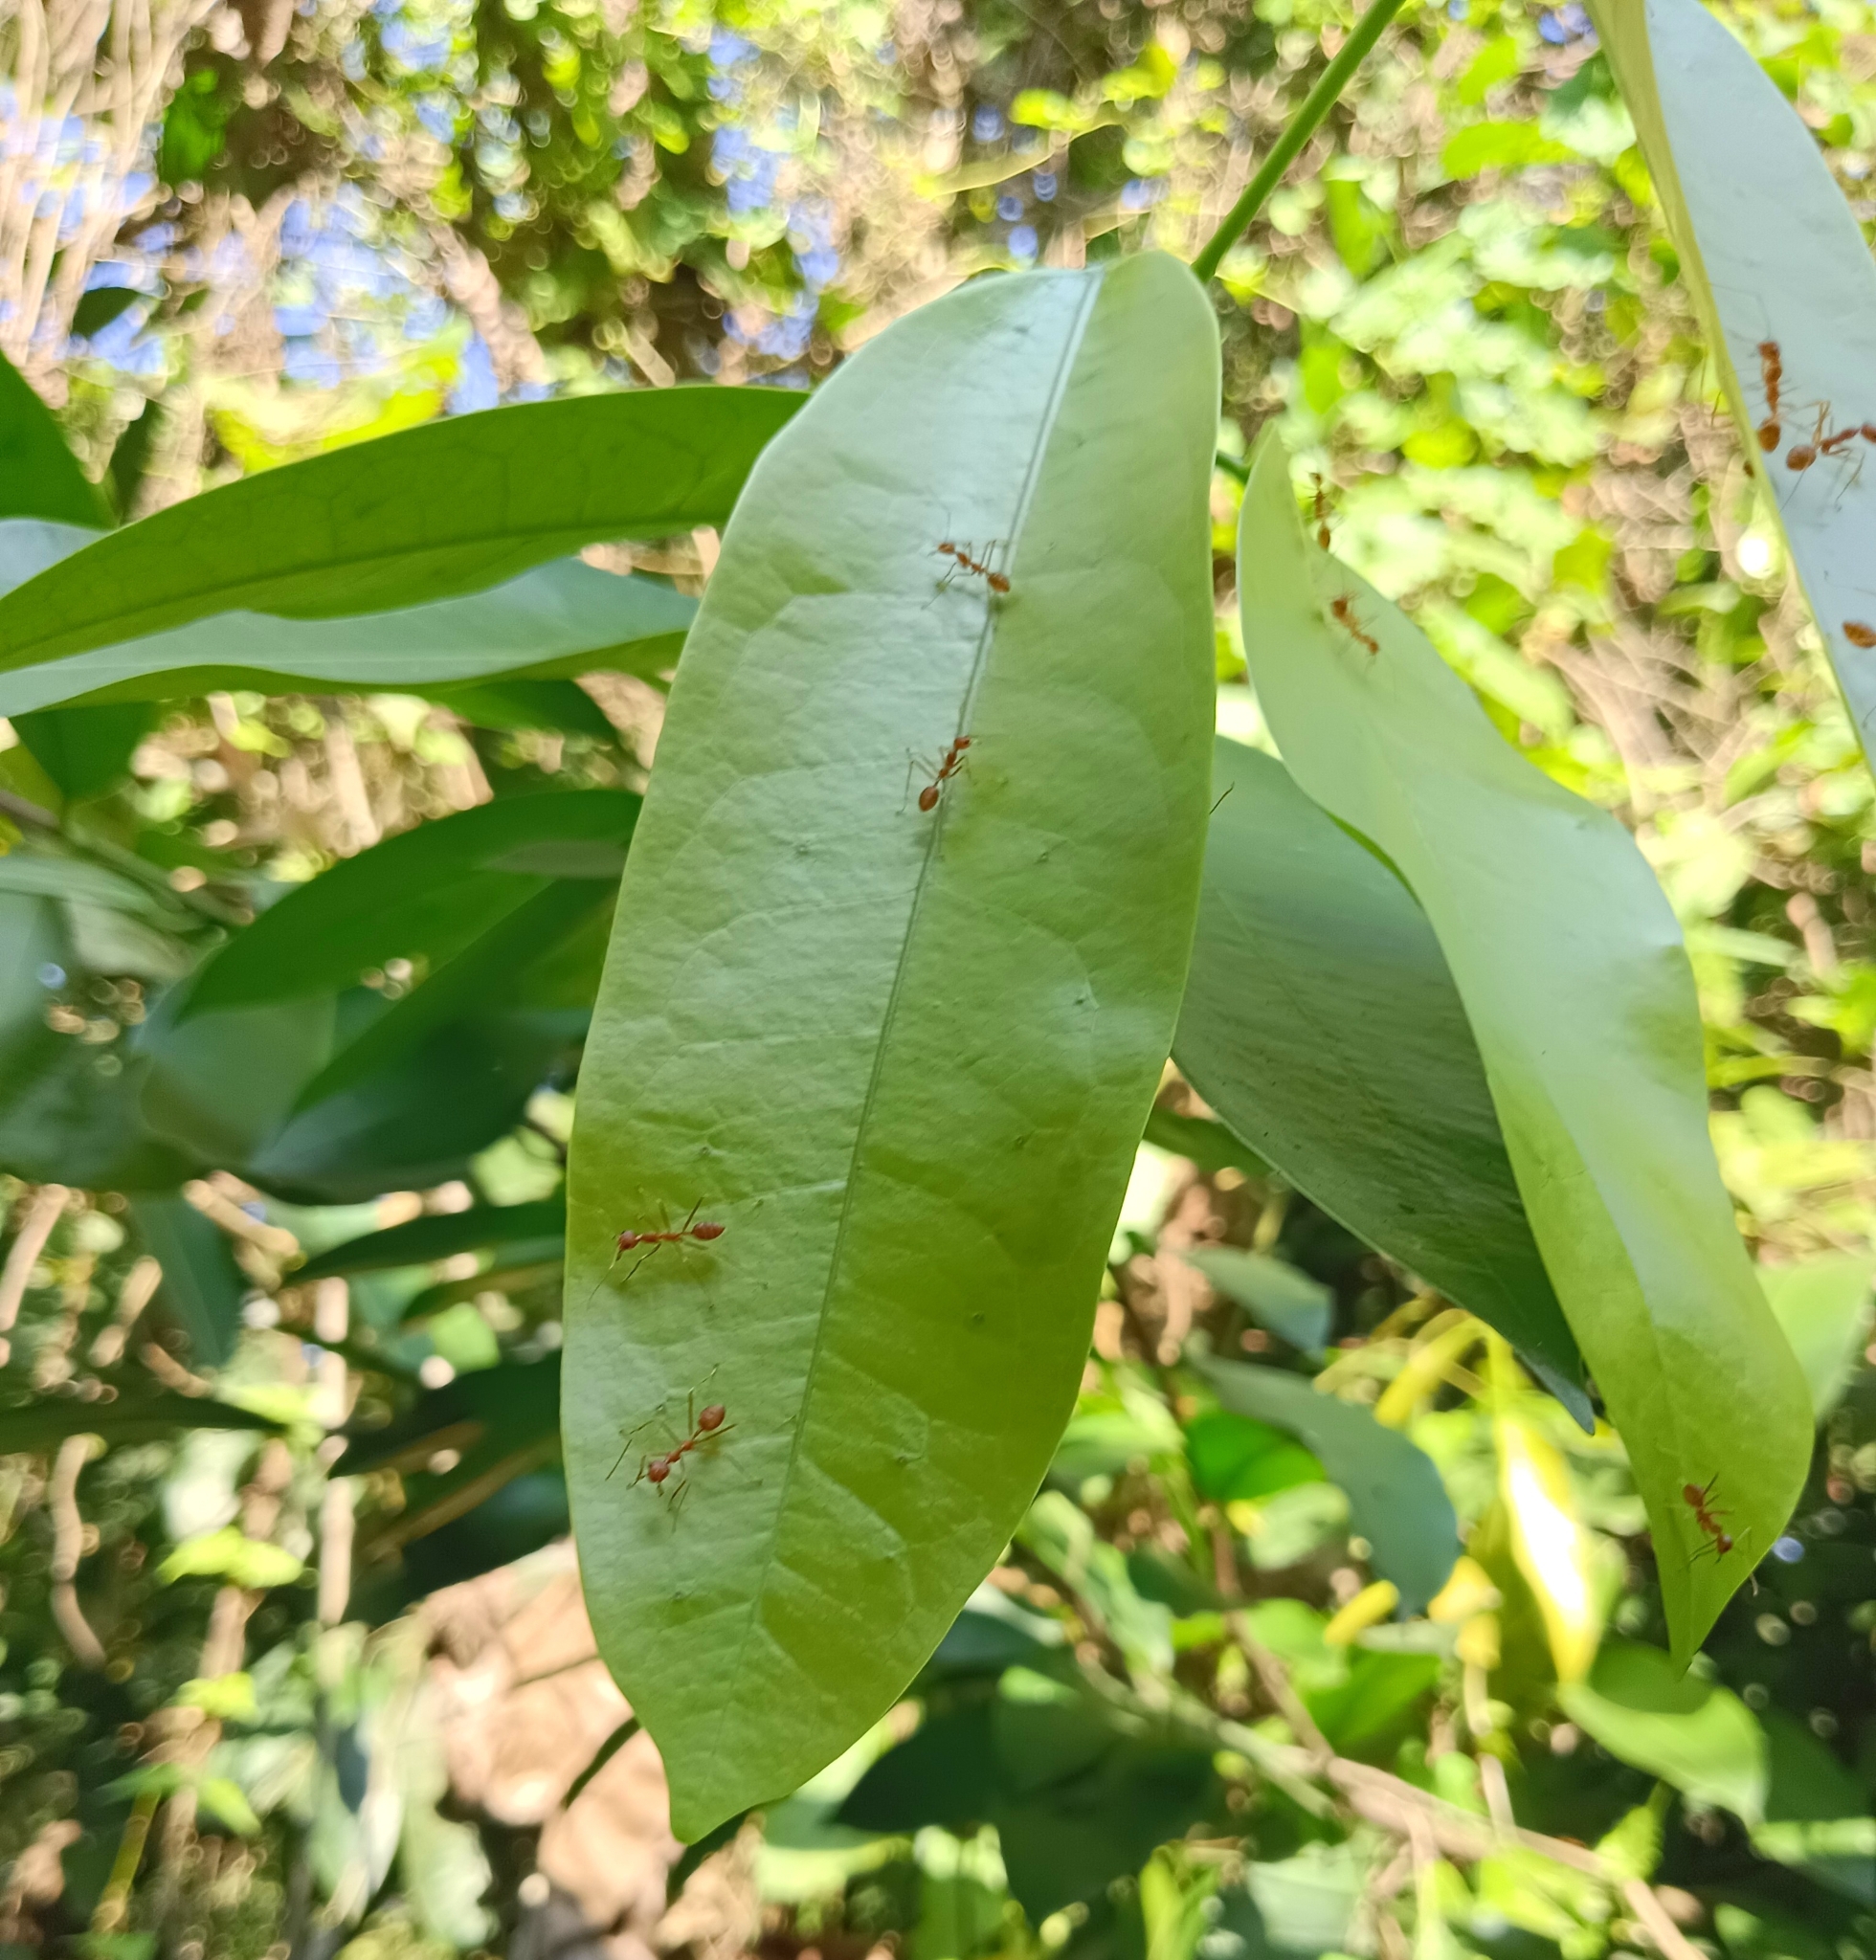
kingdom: Animalia
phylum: Arthropoda
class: Insecta
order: Hymenoptera
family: Formicidae
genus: Oecophylla
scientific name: Oecophylla smaragdina
